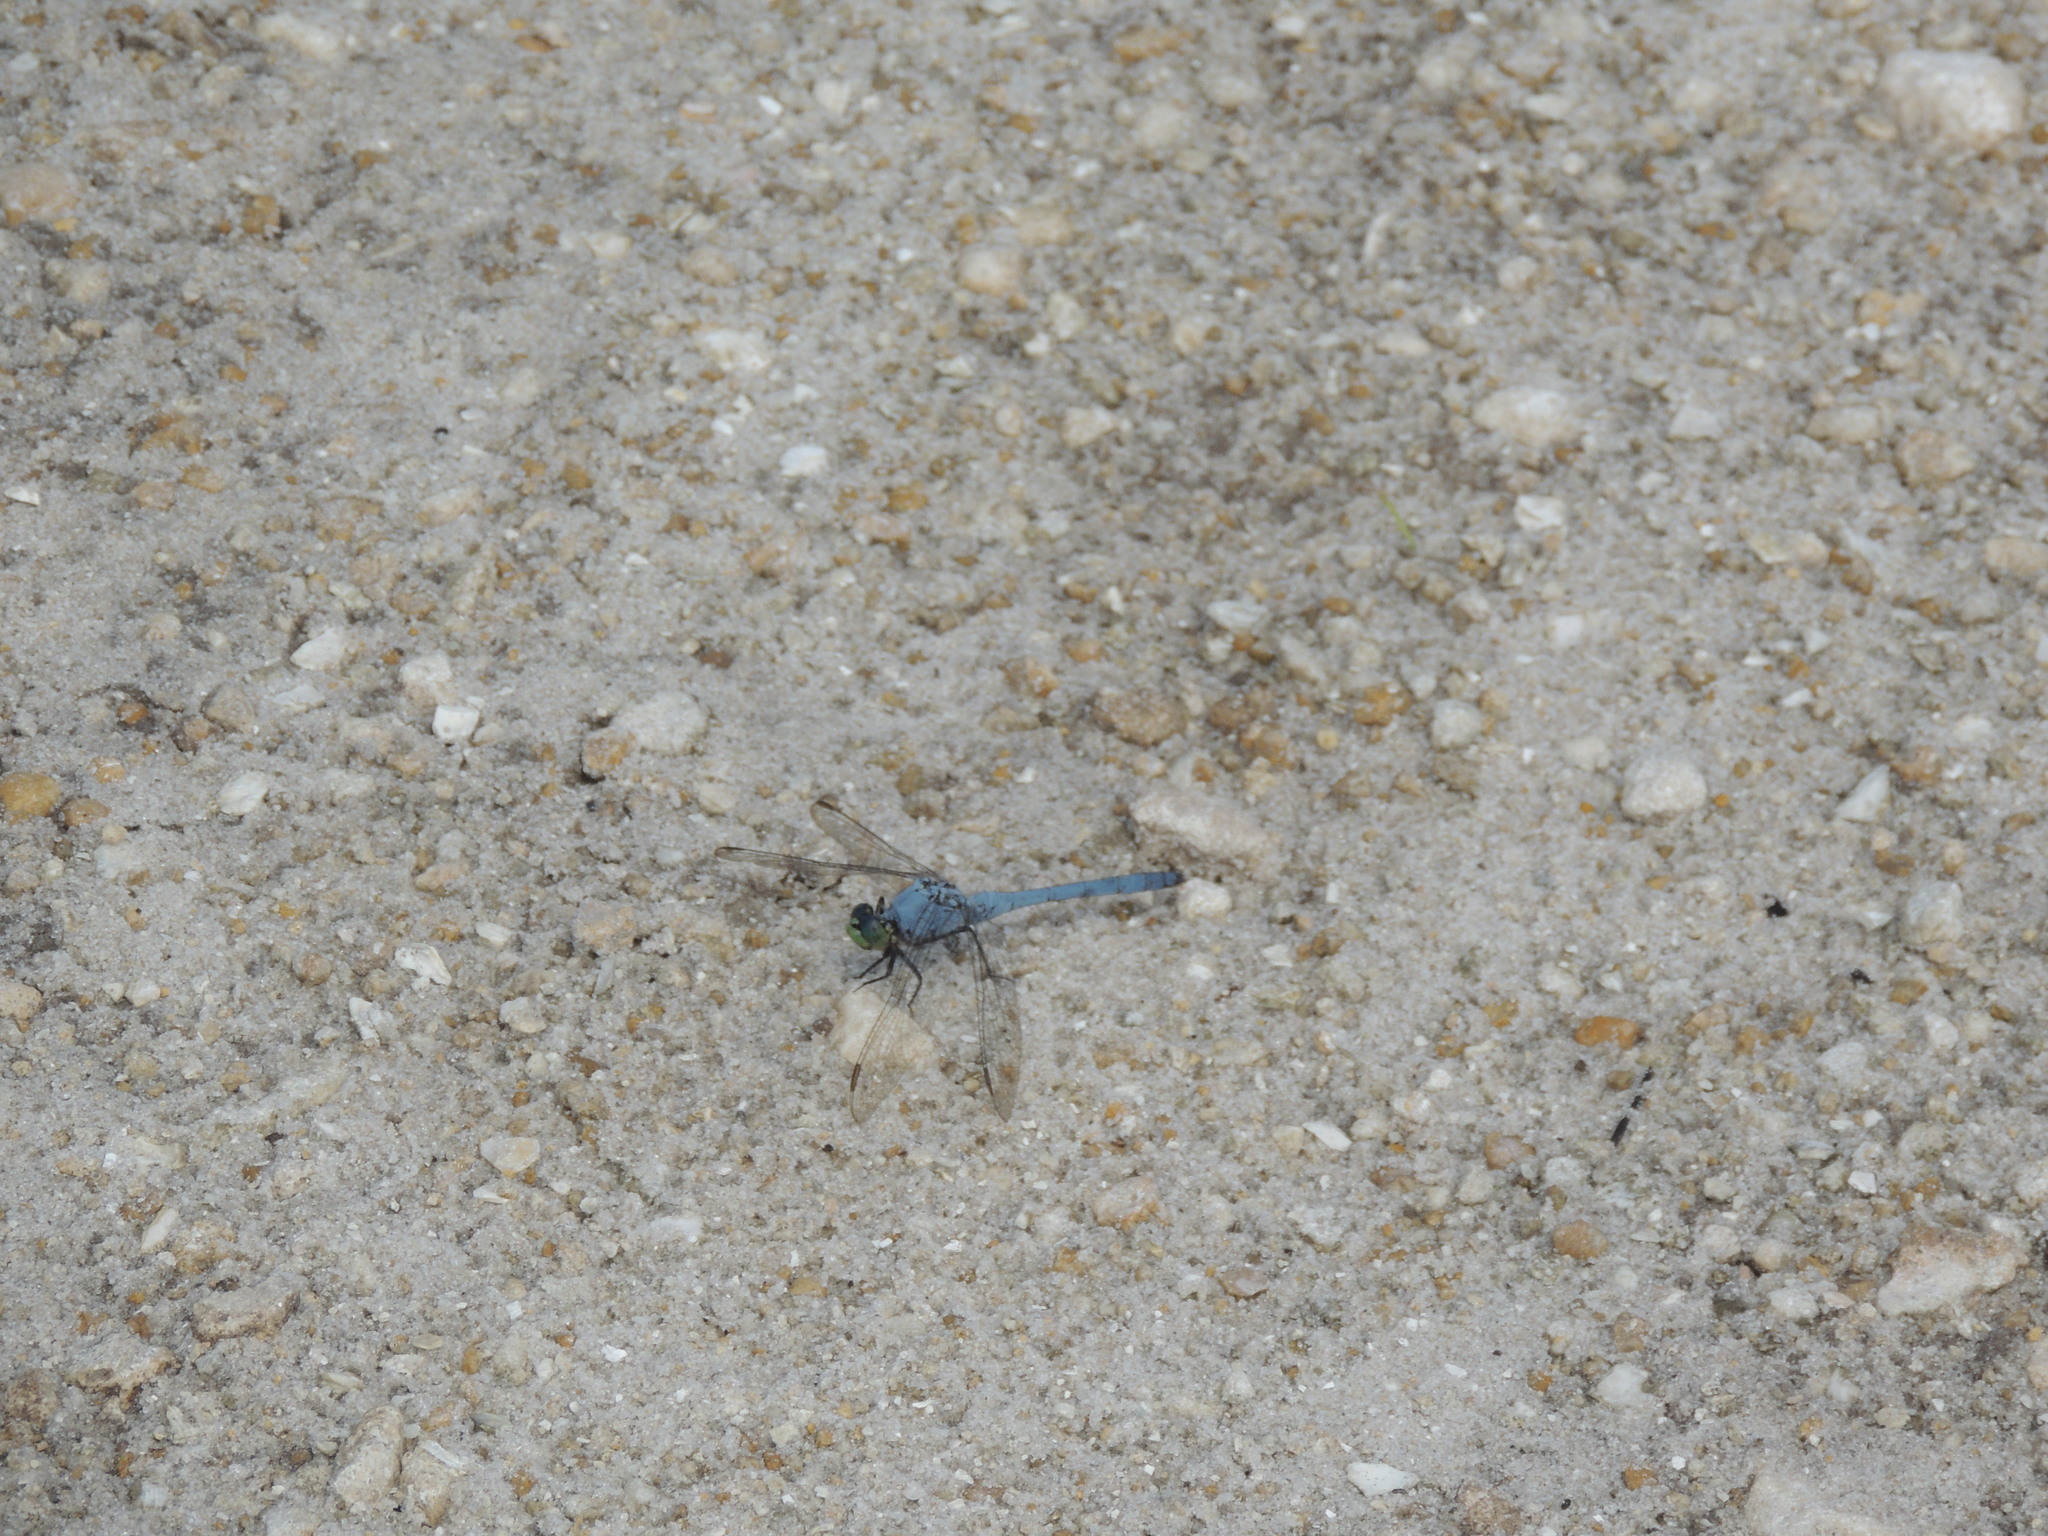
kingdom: Animalia
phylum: Arthropoda
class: Insecta
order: Odonata
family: Libellulidae
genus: Erythemis
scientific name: Erythemis simplicicollis
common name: Eastern pondhawk
